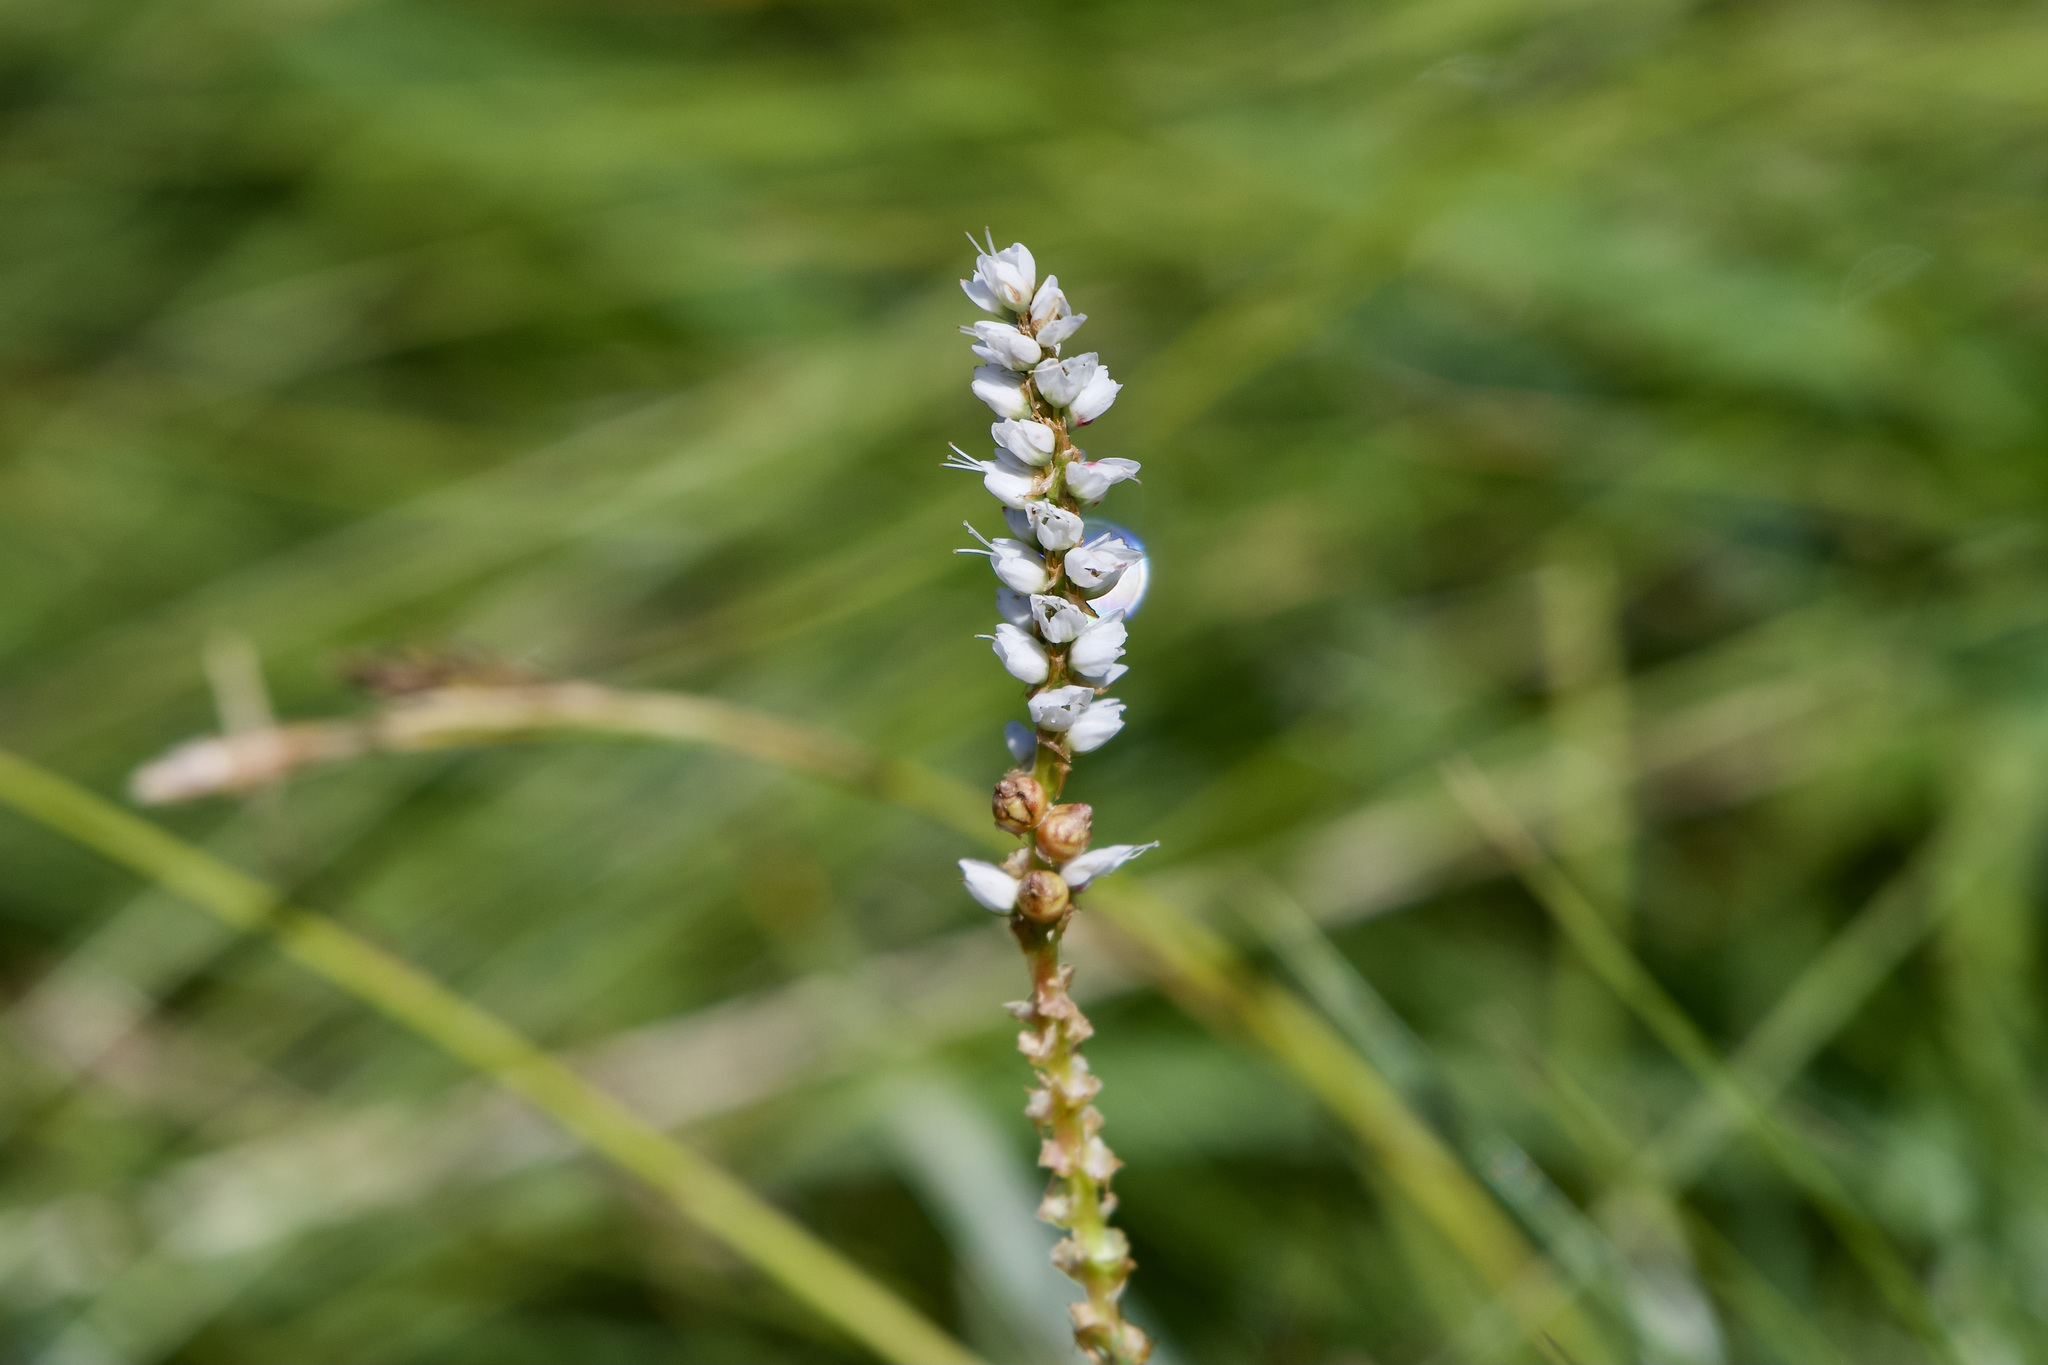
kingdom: Plantae
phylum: Tracheophyta
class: Magnoliopsida
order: Caryophyllales
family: Polygonaceae
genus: Bistorta
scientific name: Bistorta vivipara
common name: Alpine bistort
